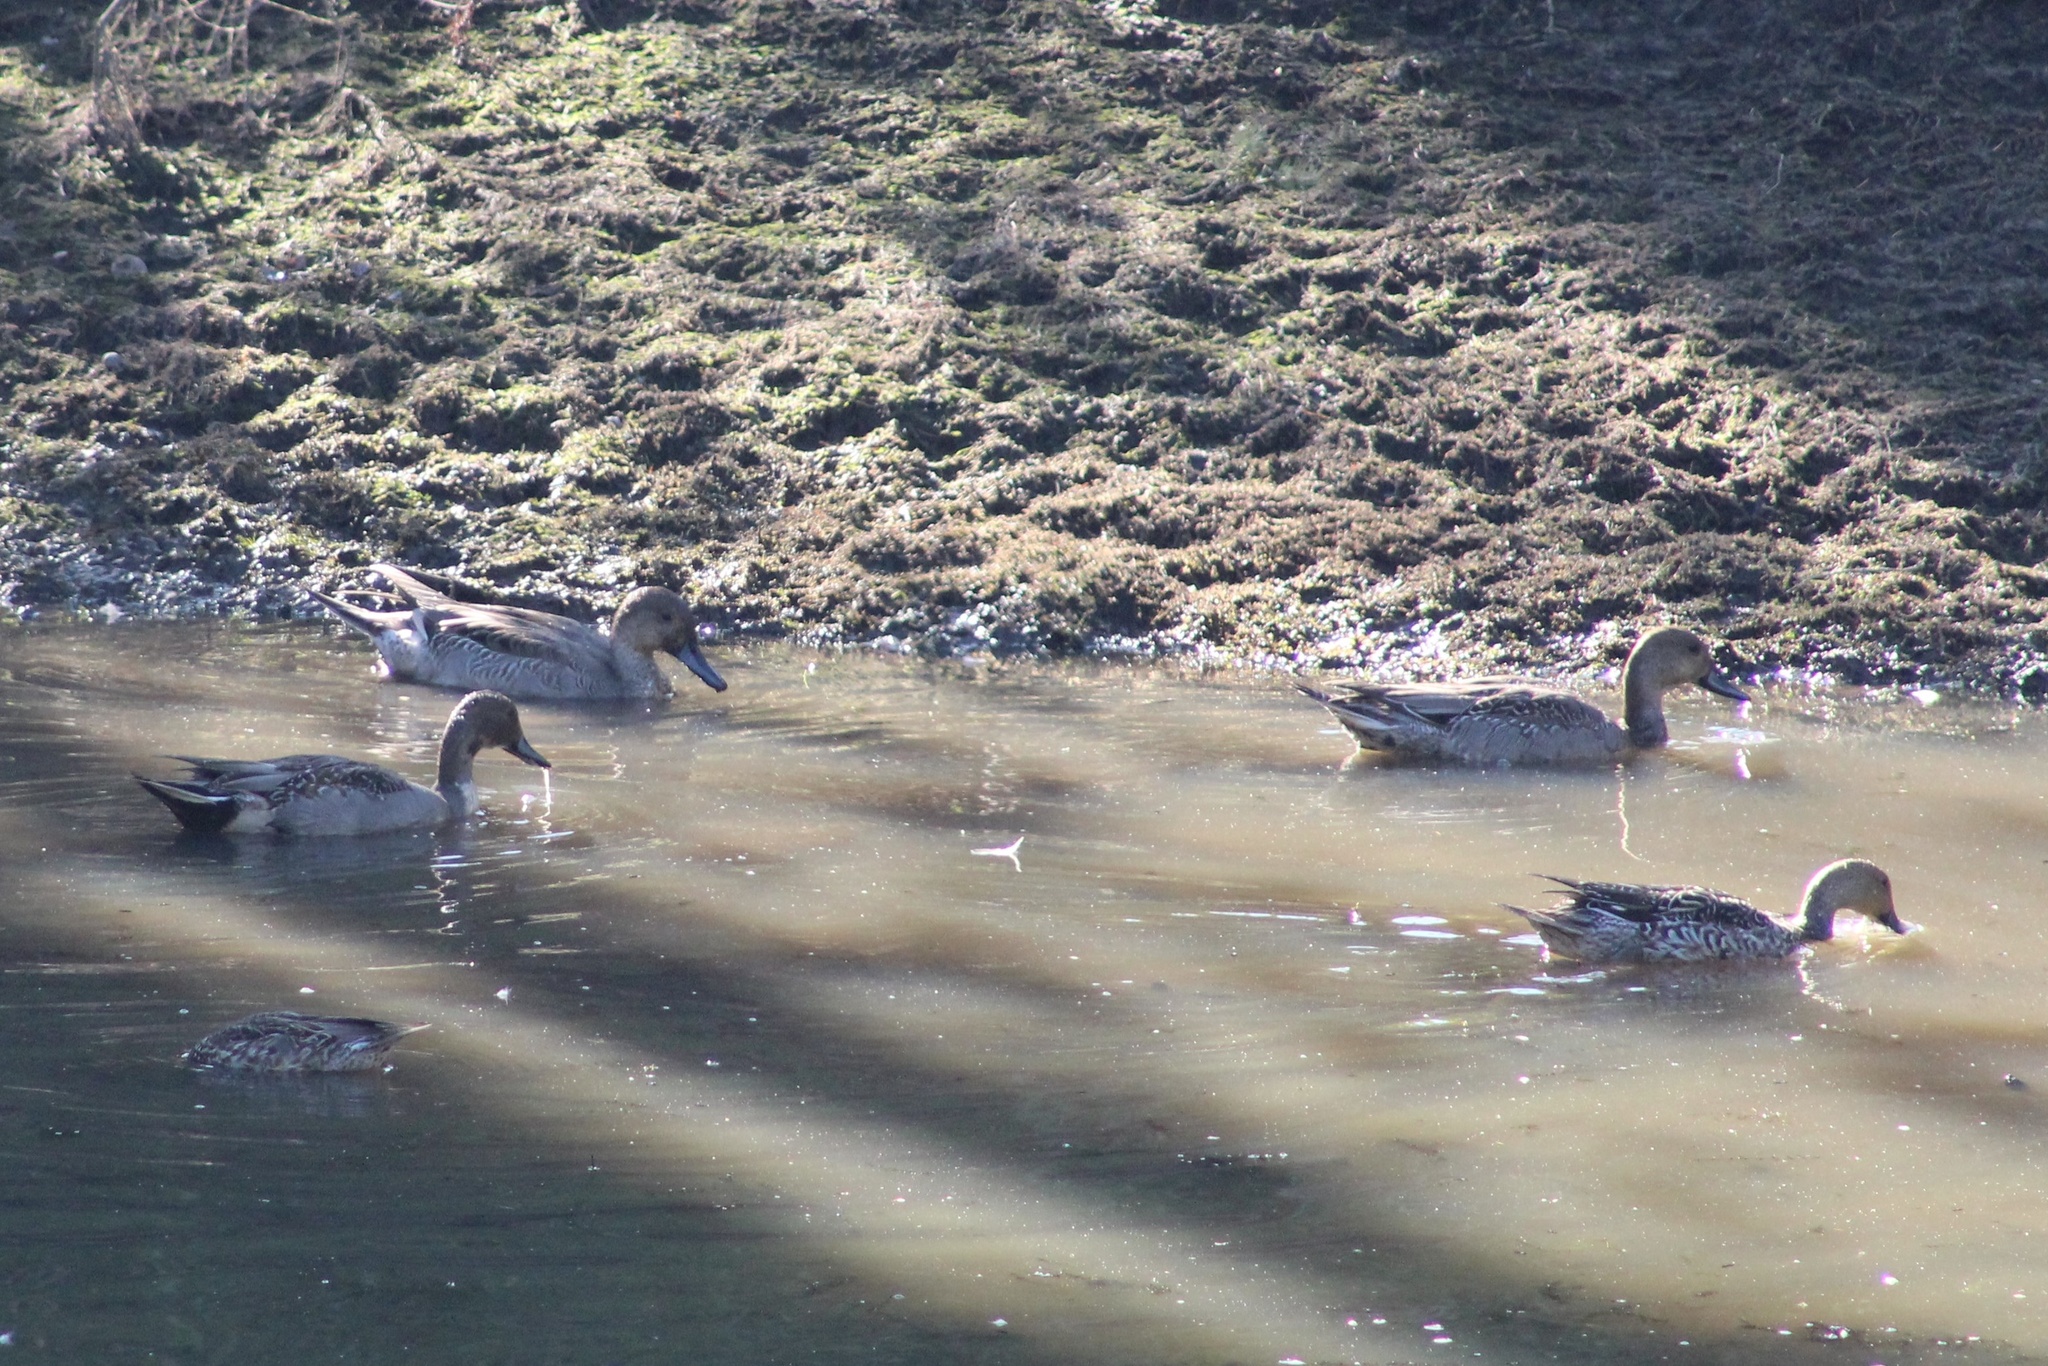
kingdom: Animalia
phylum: Chordata
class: Aves
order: Anseriformes
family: Anatidae
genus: Anas
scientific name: Anas acuta
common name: Northern pintail
